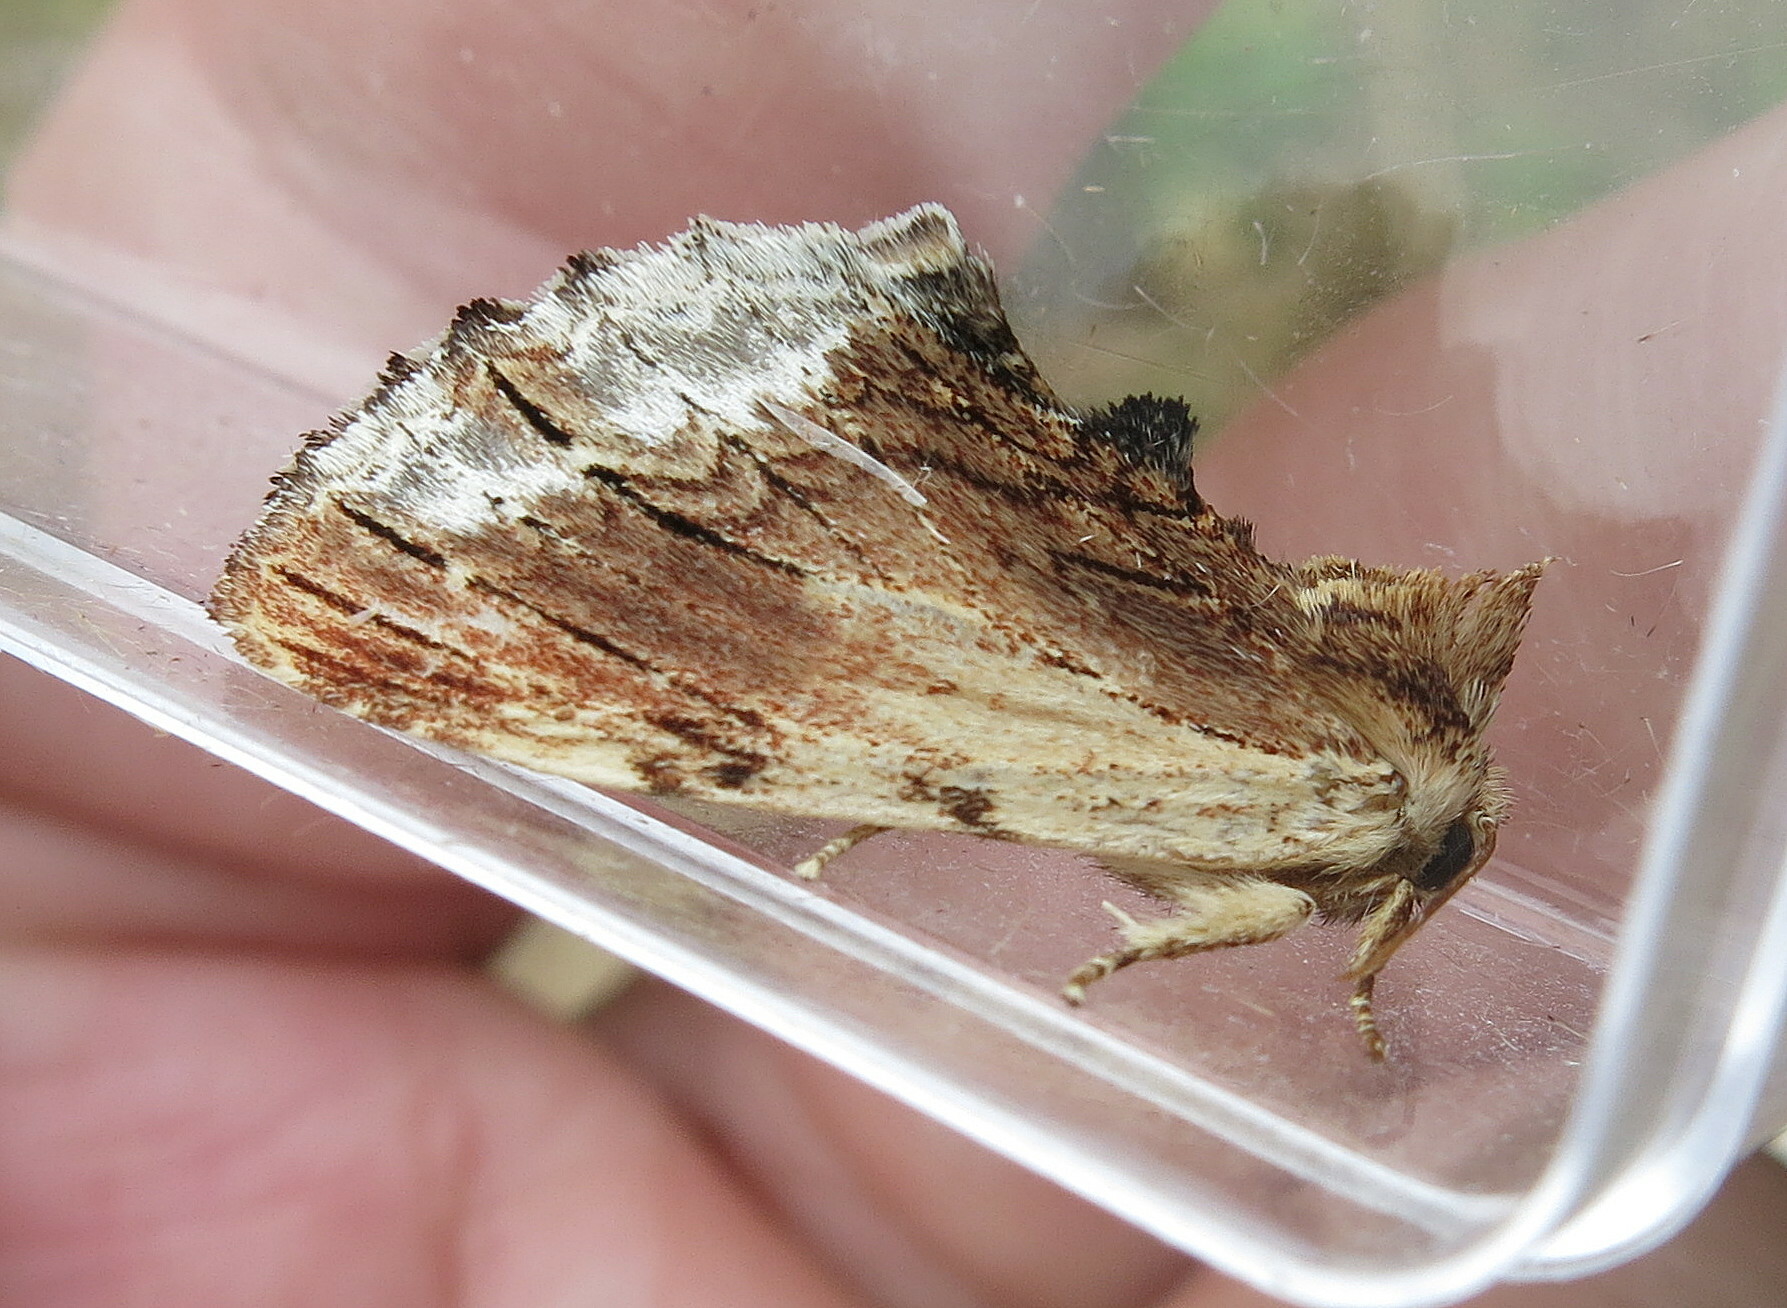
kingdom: Animalia
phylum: Arthropoda
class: Insecta
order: Lepidoptera
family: Notodontidae
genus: Ptilodon
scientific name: Ptilodon cucullina
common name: Maple prominent
